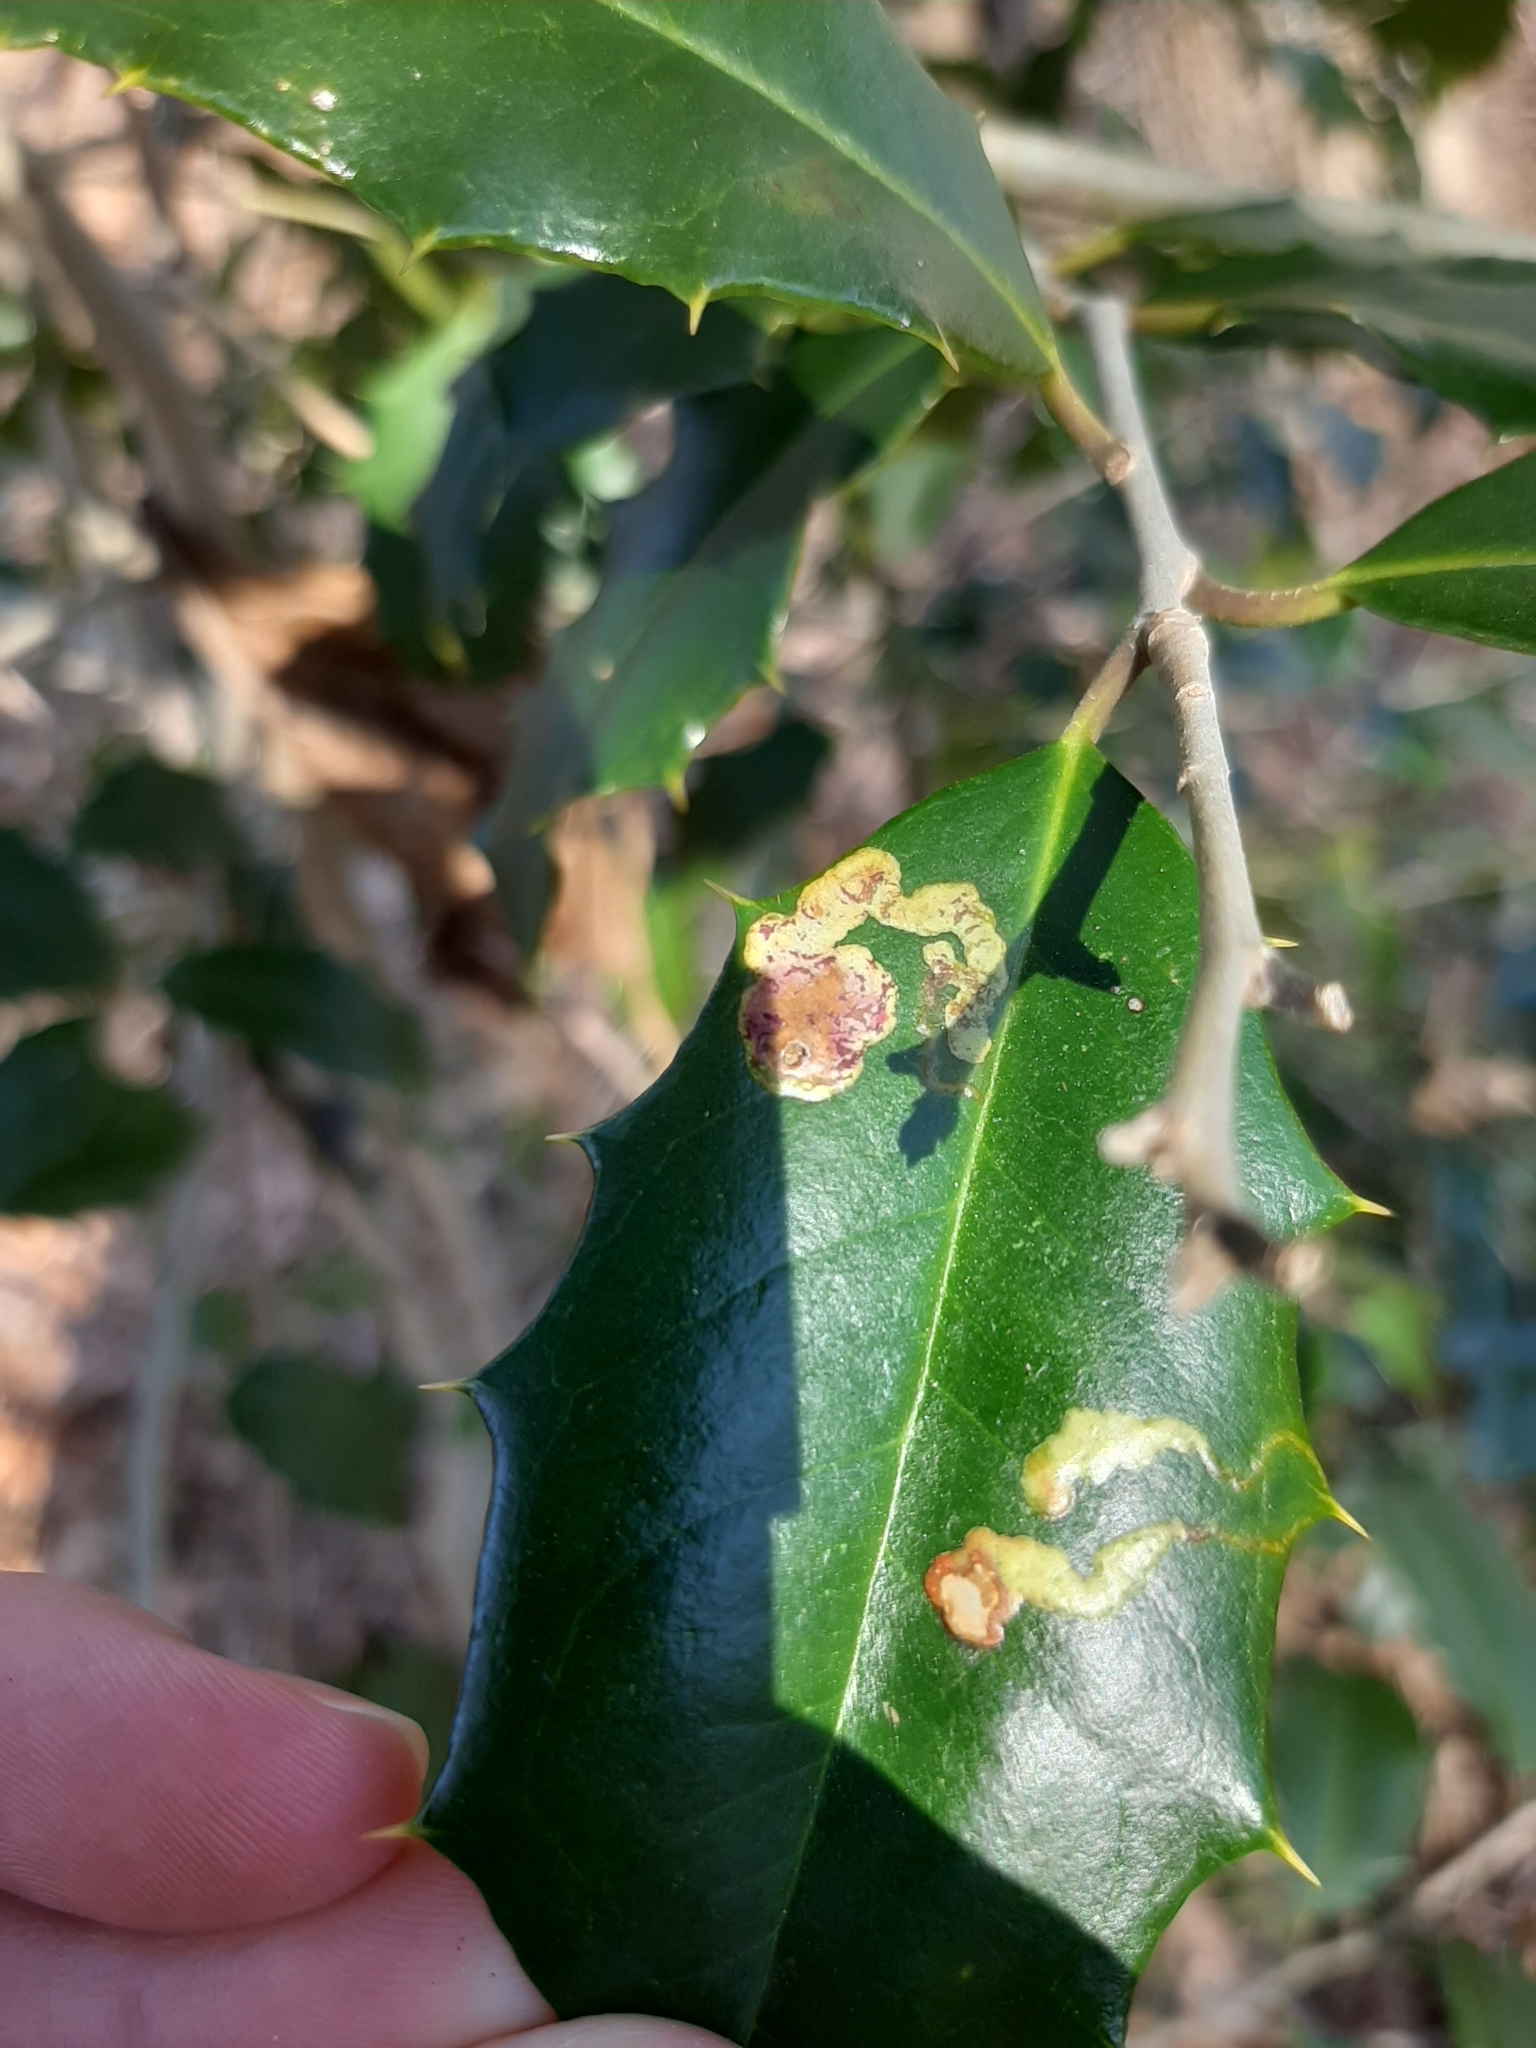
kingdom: Animalia
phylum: Arthropoda
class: Insecta
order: Diptera
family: Agromyzidae
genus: Phytomyza
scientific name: Phytomyza ilicicola
